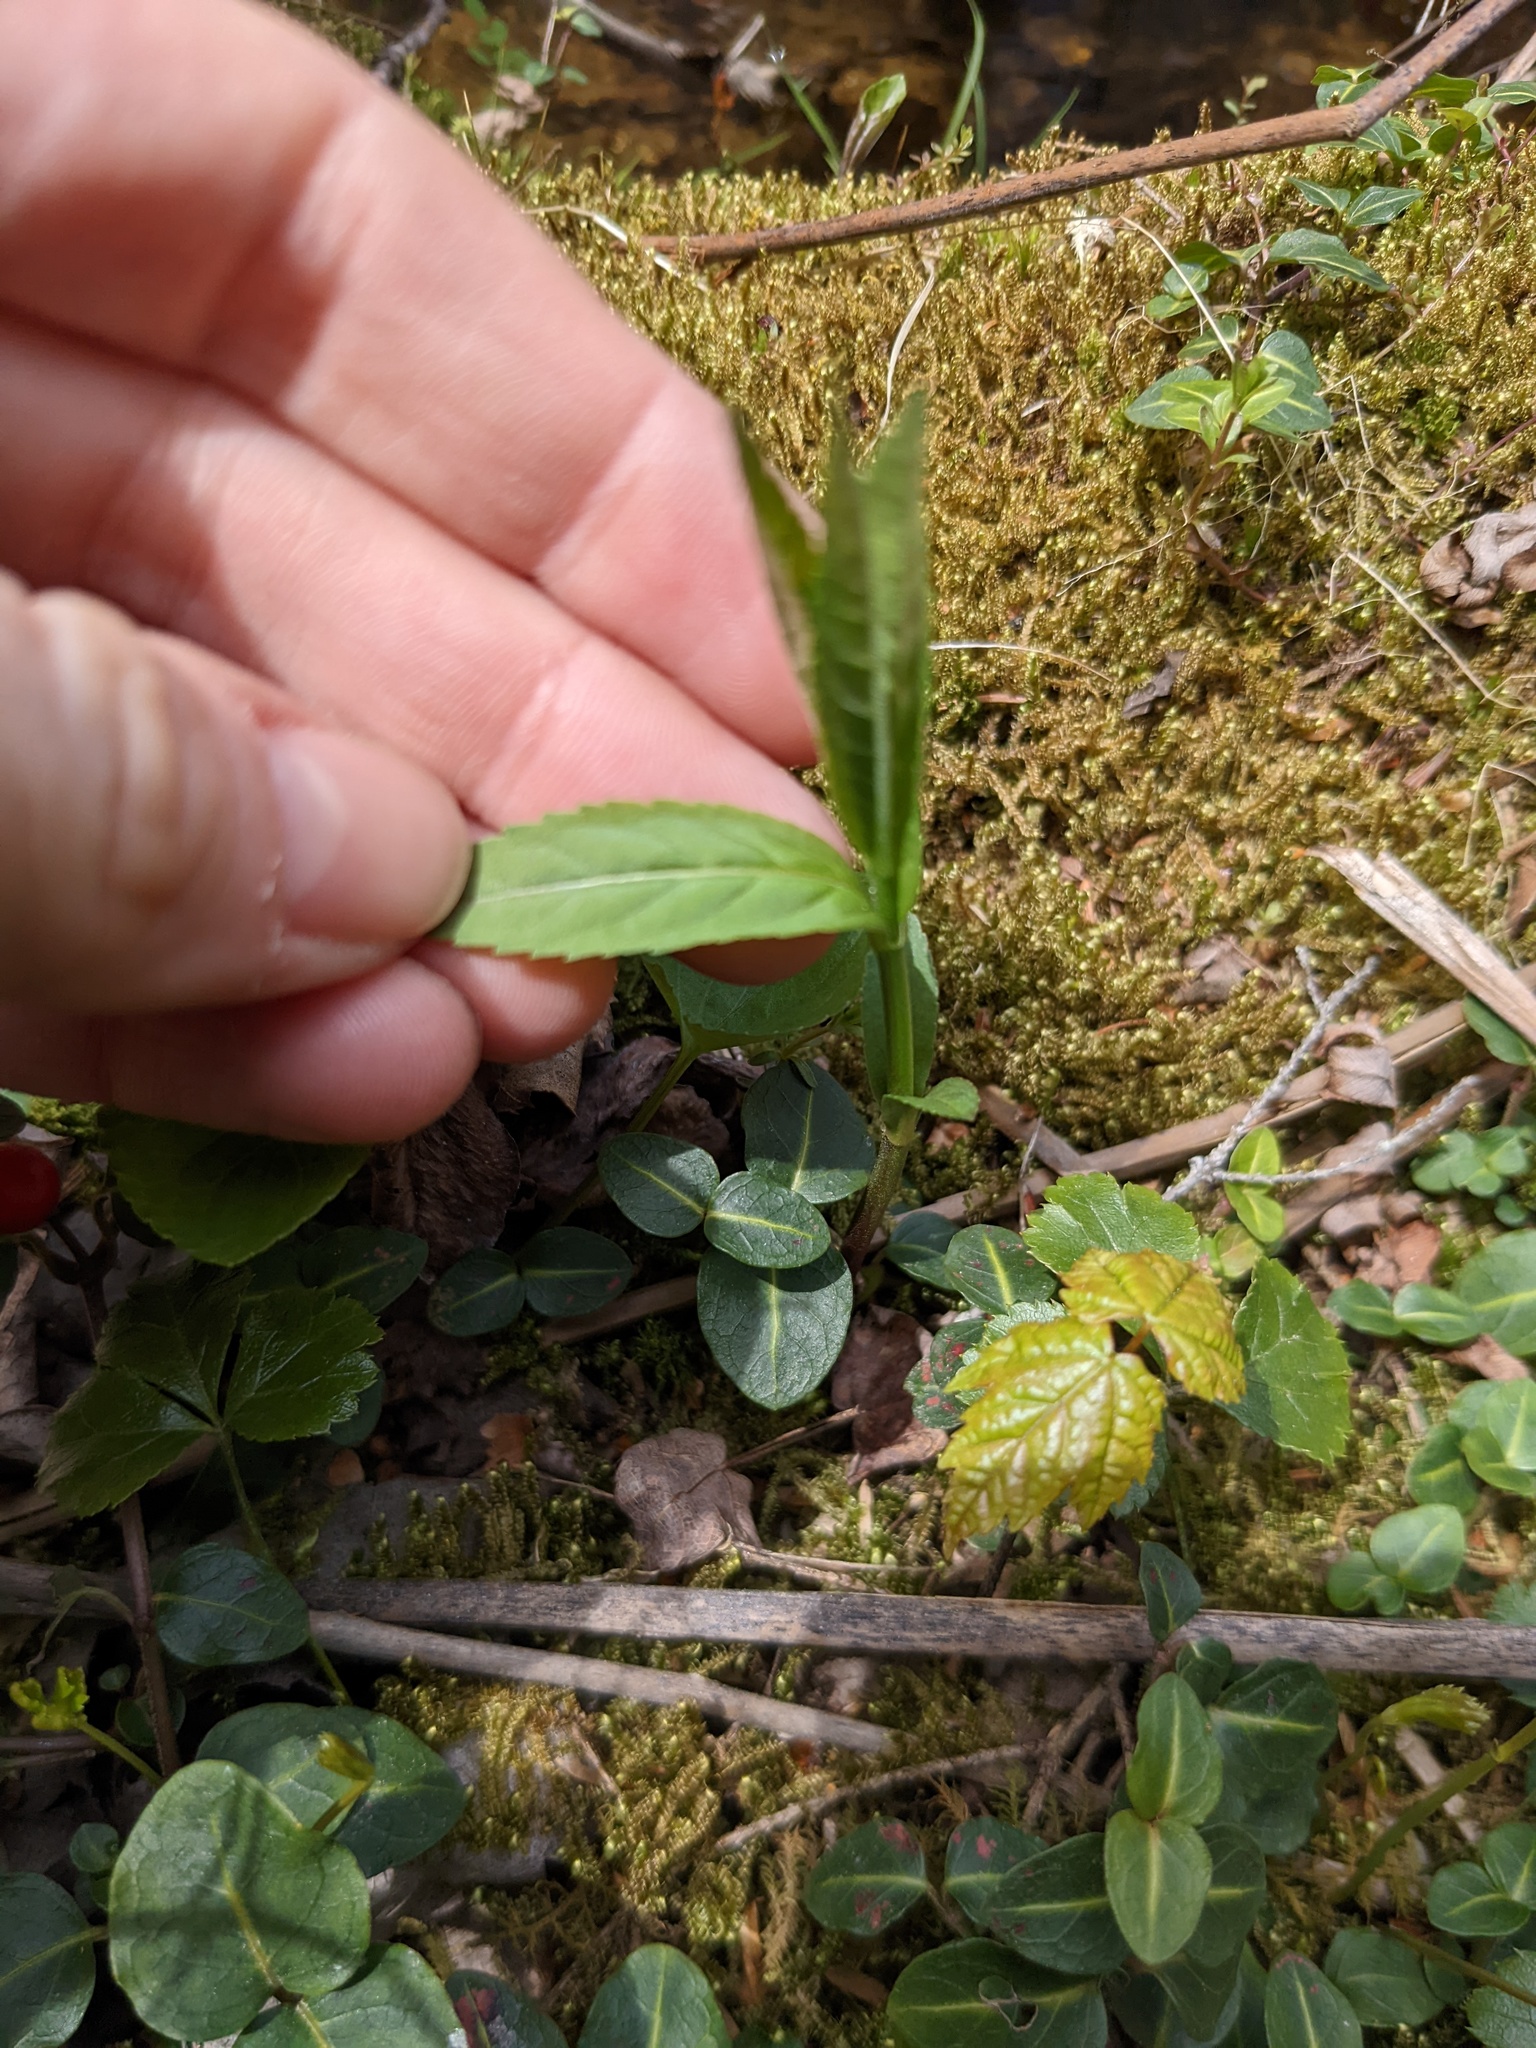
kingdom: Plantae
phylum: Tracheophyta
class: Magnoliopsida
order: Lamiales
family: Plantaginaceae
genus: Chelone
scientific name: Chelone glabra
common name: Snakehead
